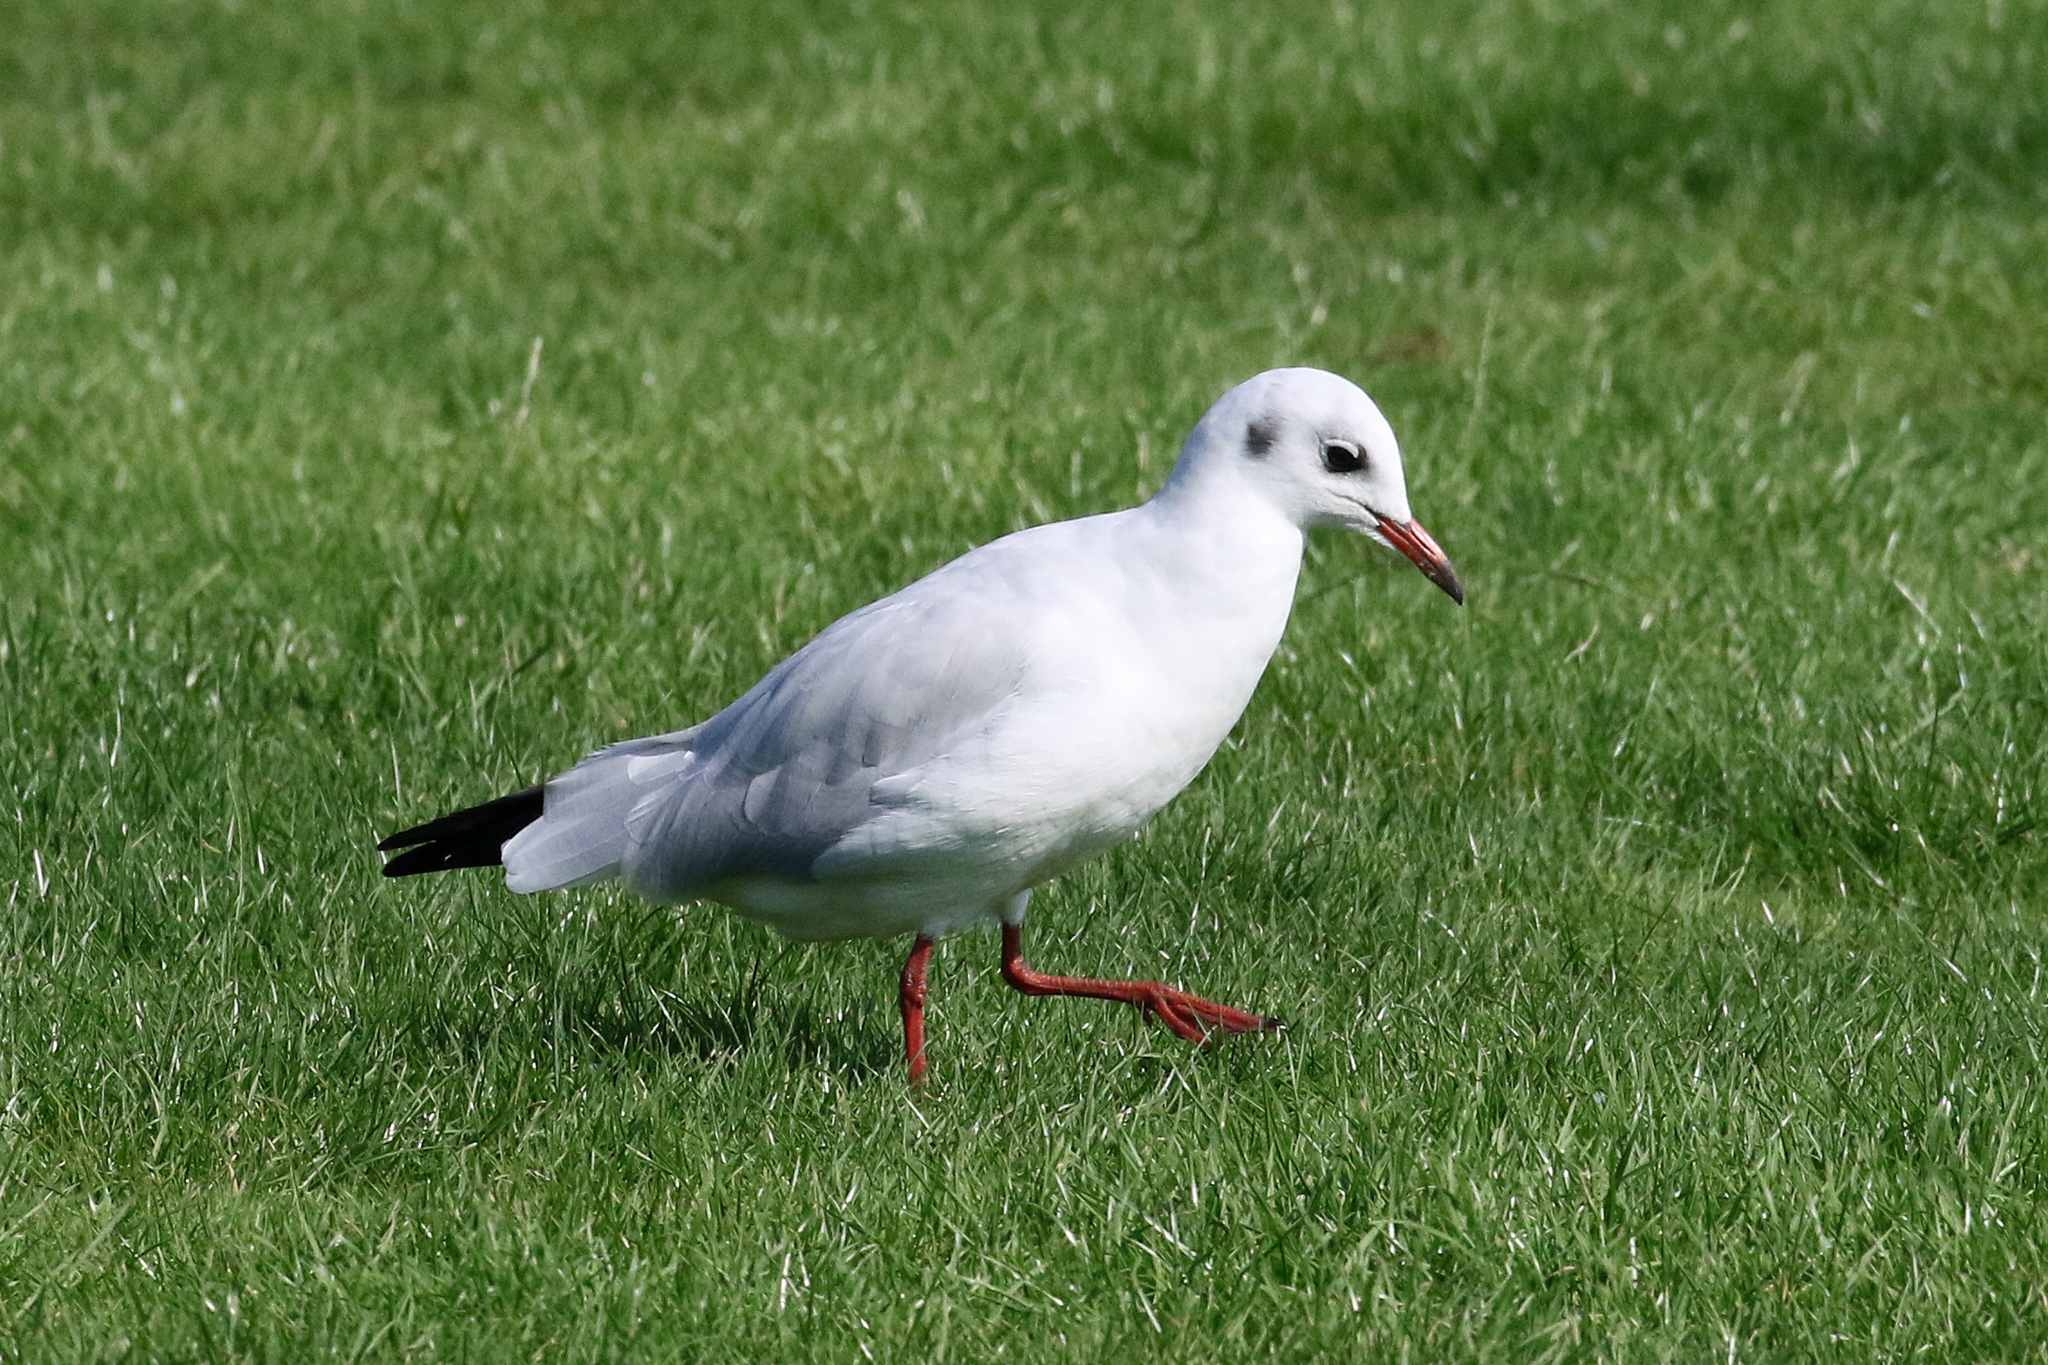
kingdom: Animalia
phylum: Chordata
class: Aves
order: Charadriiformes
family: Laridae
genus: Chroicocephalus
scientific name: Chroicocephalus ridibundus
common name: Black-headed gull
